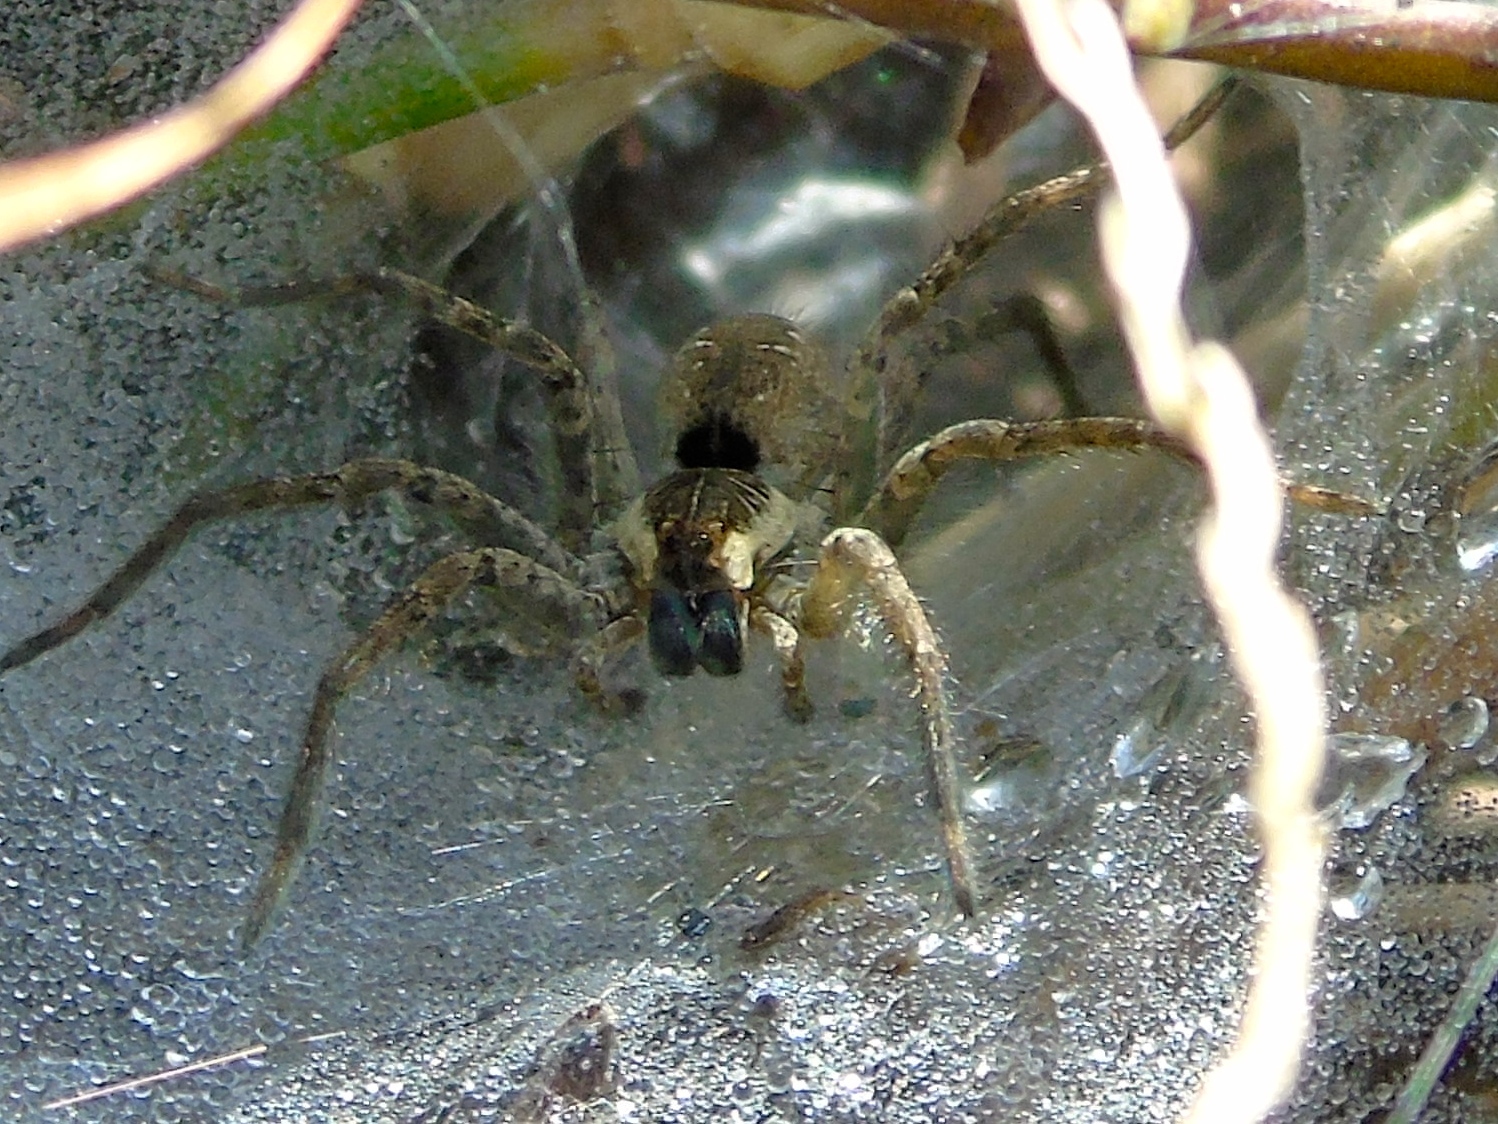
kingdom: Animalia
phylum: Arthropoda
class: Arachnida
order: Araneae
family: Lycosidae
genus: Sosippus
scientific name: Sosippus
